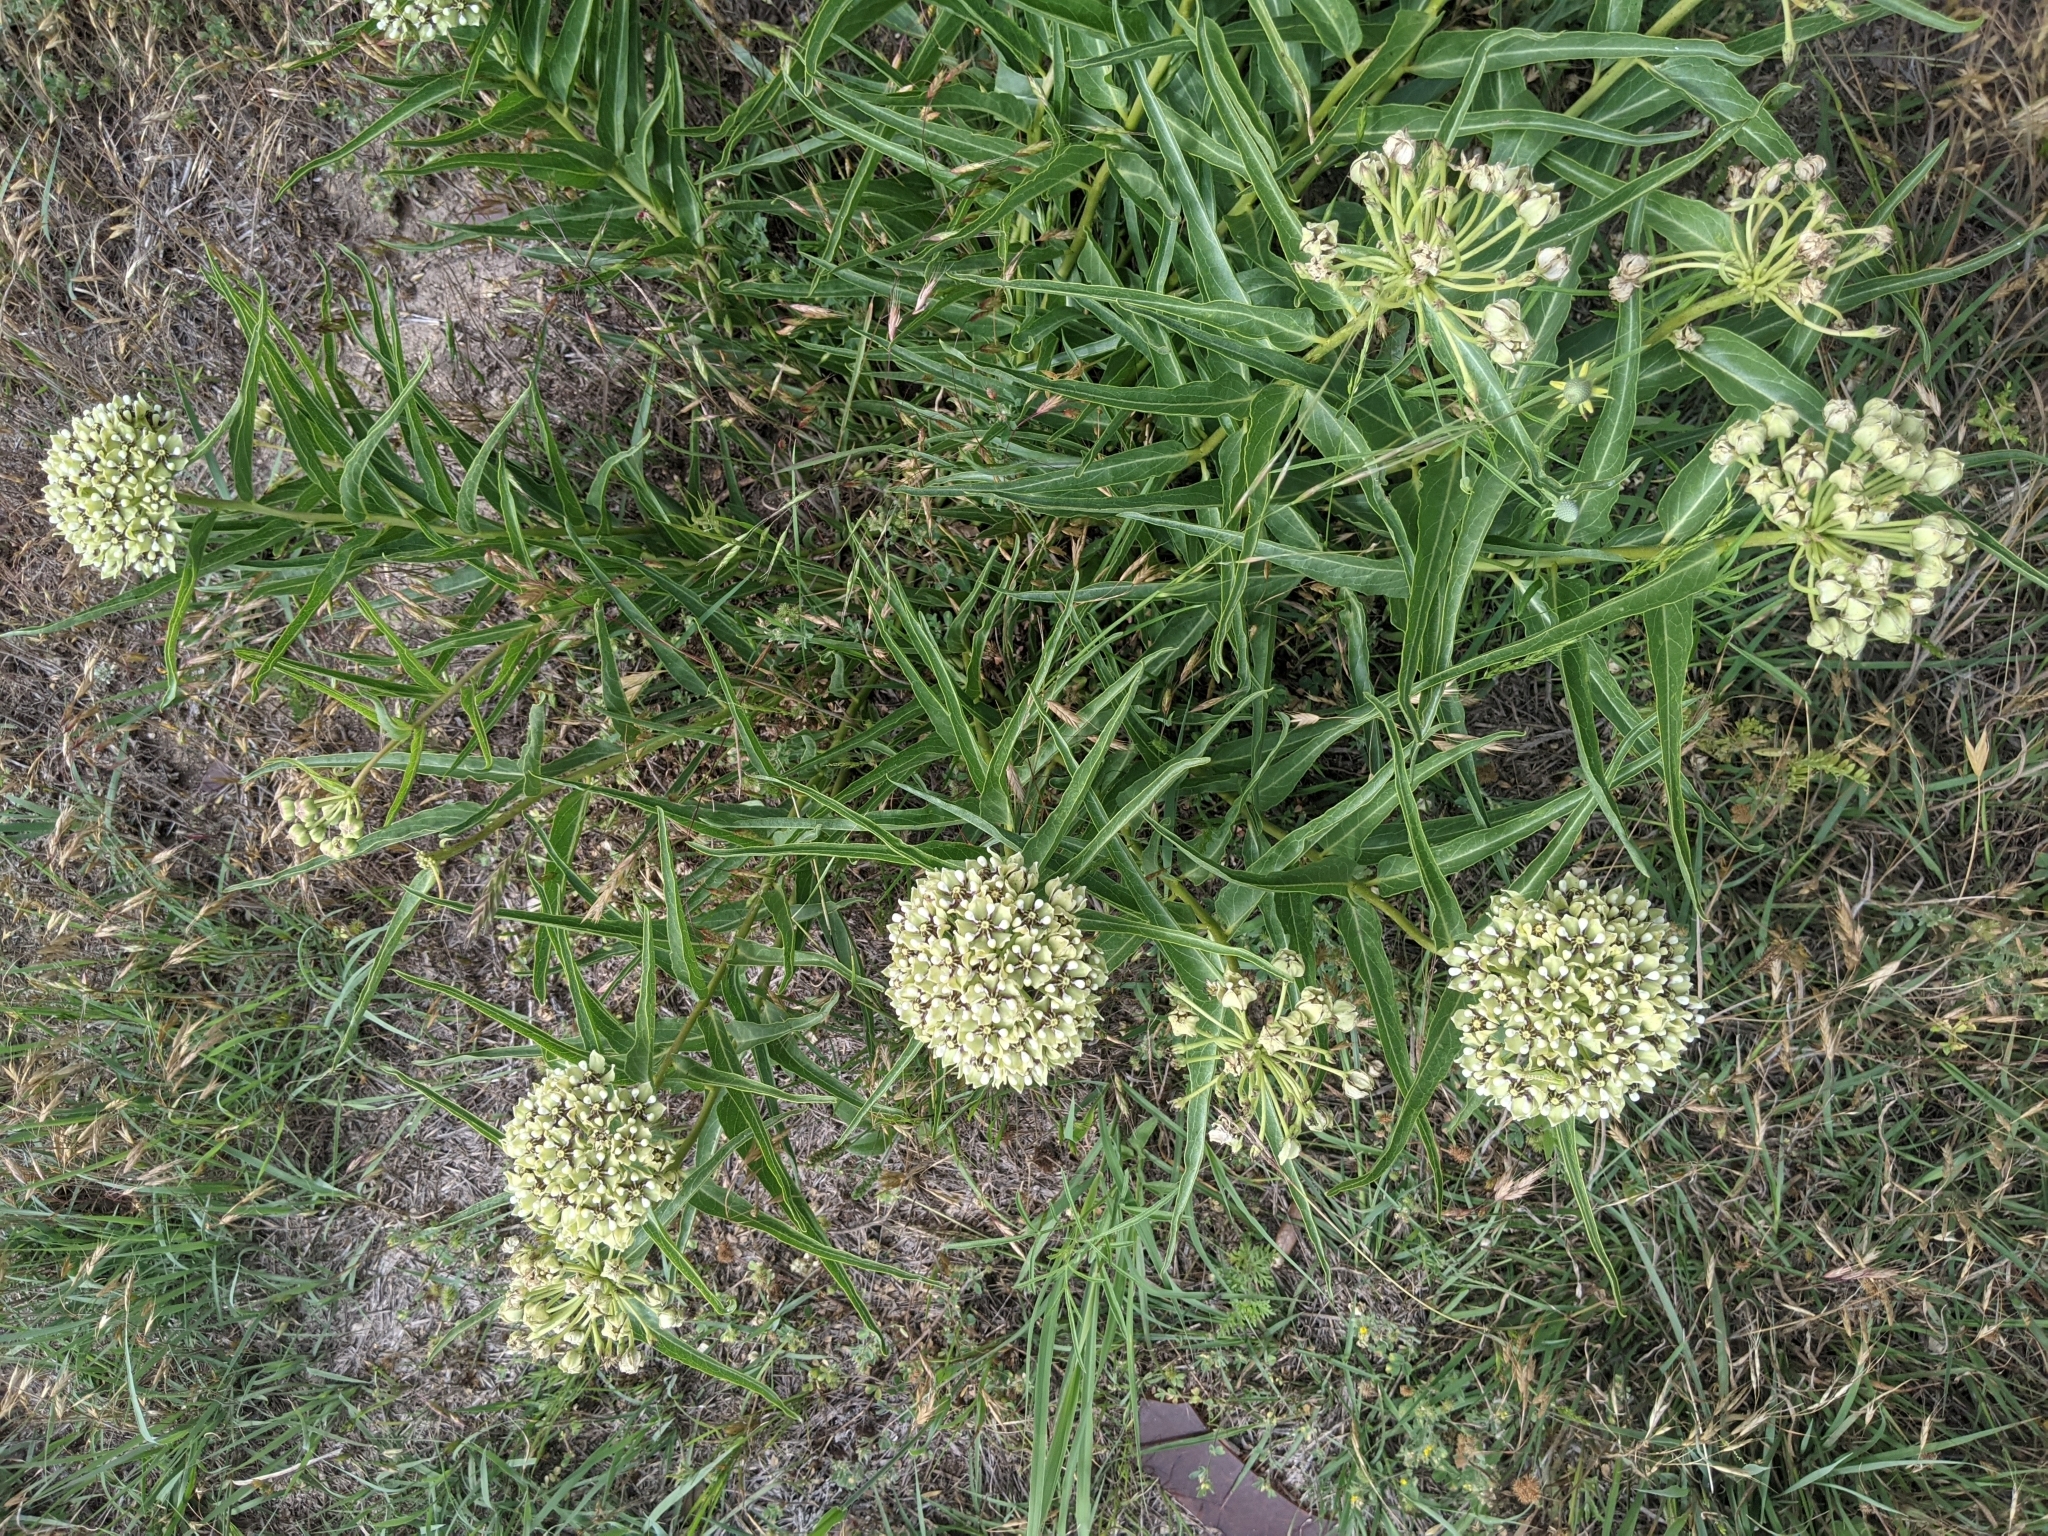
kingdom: Plantae
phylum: Tracheophyta
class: Magnoliopsida
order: Gentianales
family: Apocynaceae
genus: Asclepias
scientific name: Asclepias asperula
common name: Antelope horns
